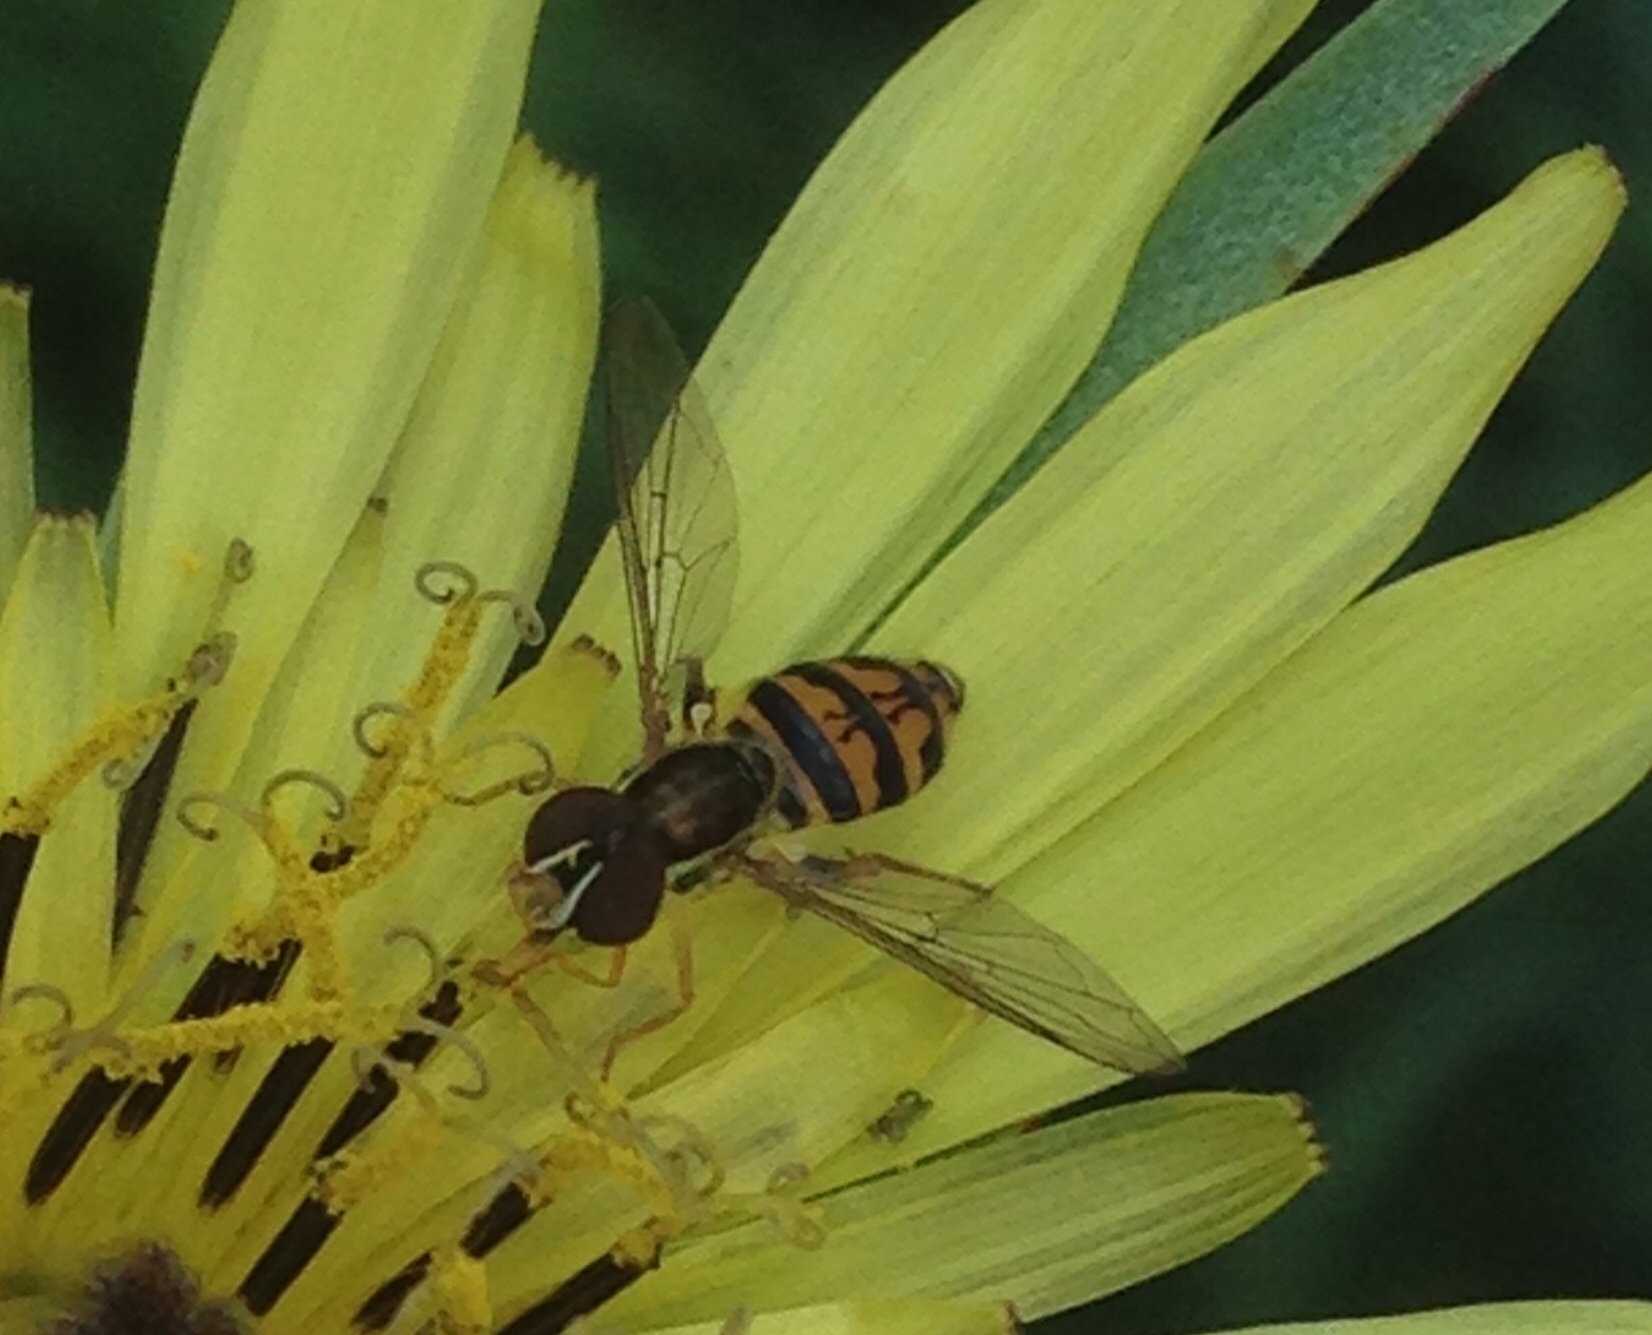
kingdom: Animalia
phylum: Arthropoda
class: Insecta
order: Diptera
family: Syrphidae
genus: Toxomerus
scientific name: Toxomerus occidentalis
